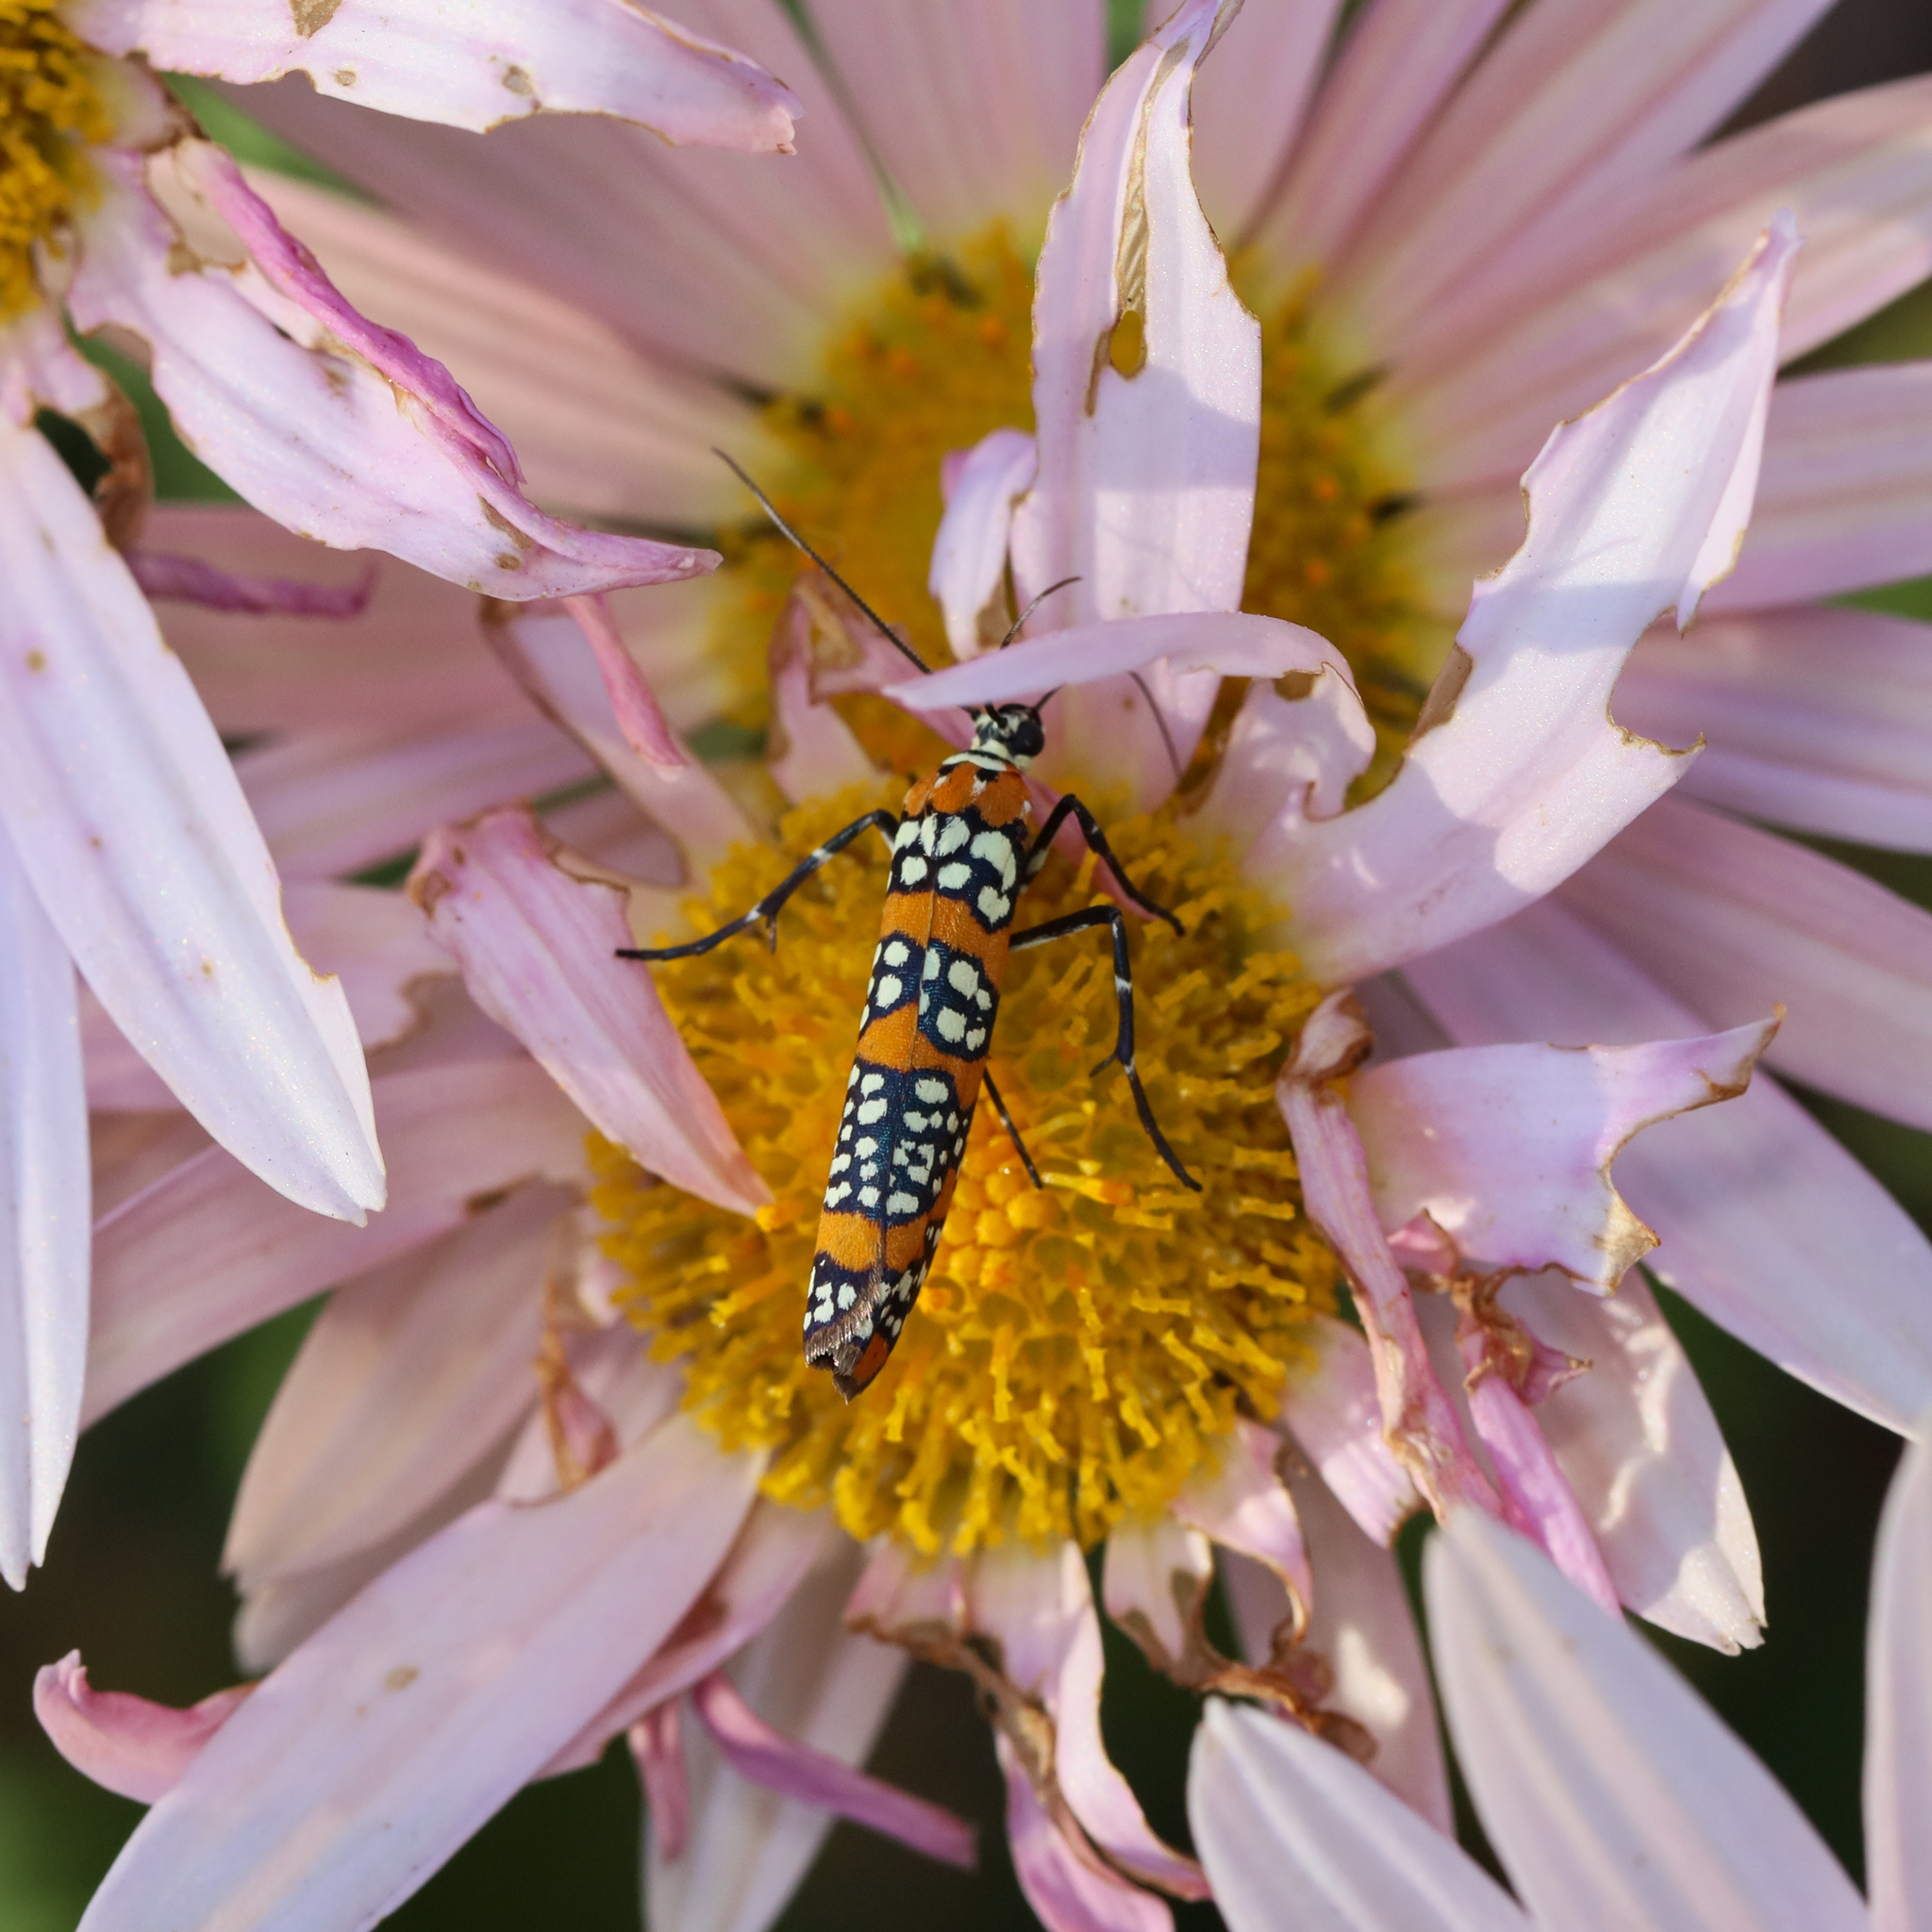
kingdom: Animalia
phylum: Arthropoda
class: Insecta
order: Lepidoptera
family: Attevidae
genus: Atteva
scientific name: Atteva punctella
